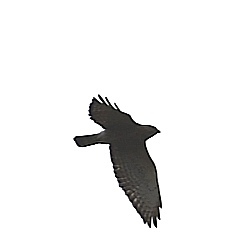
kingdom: Animalia
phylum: Chordata
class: Aves
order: Accipitriformes
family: Accipitridae
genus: Buteo
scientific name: Buteo platypterus
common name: Broad-winged hawk
